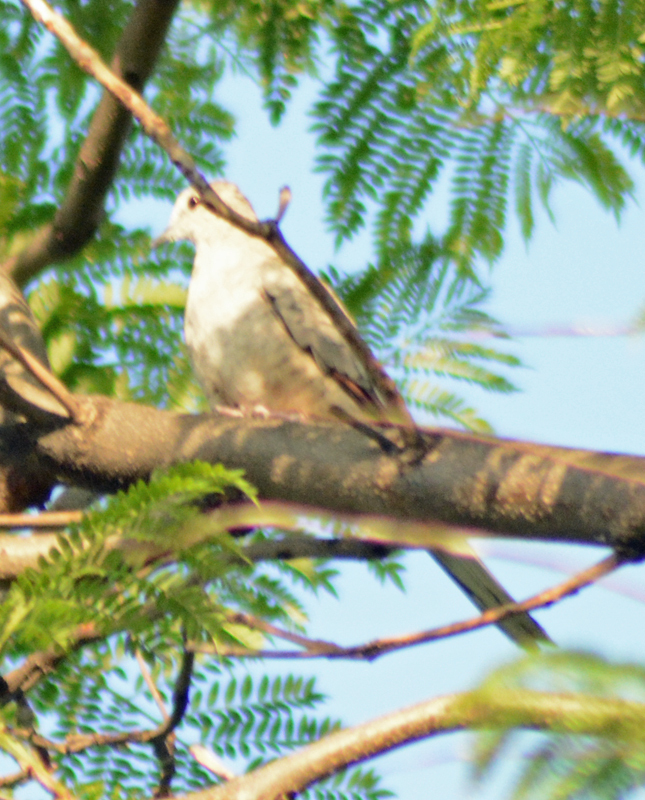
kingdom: Animalia
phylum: Chordata
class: Aves
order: Columbiformes
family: Columbidae
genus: Columbina
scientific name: Columbina inca
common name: Inca dove
